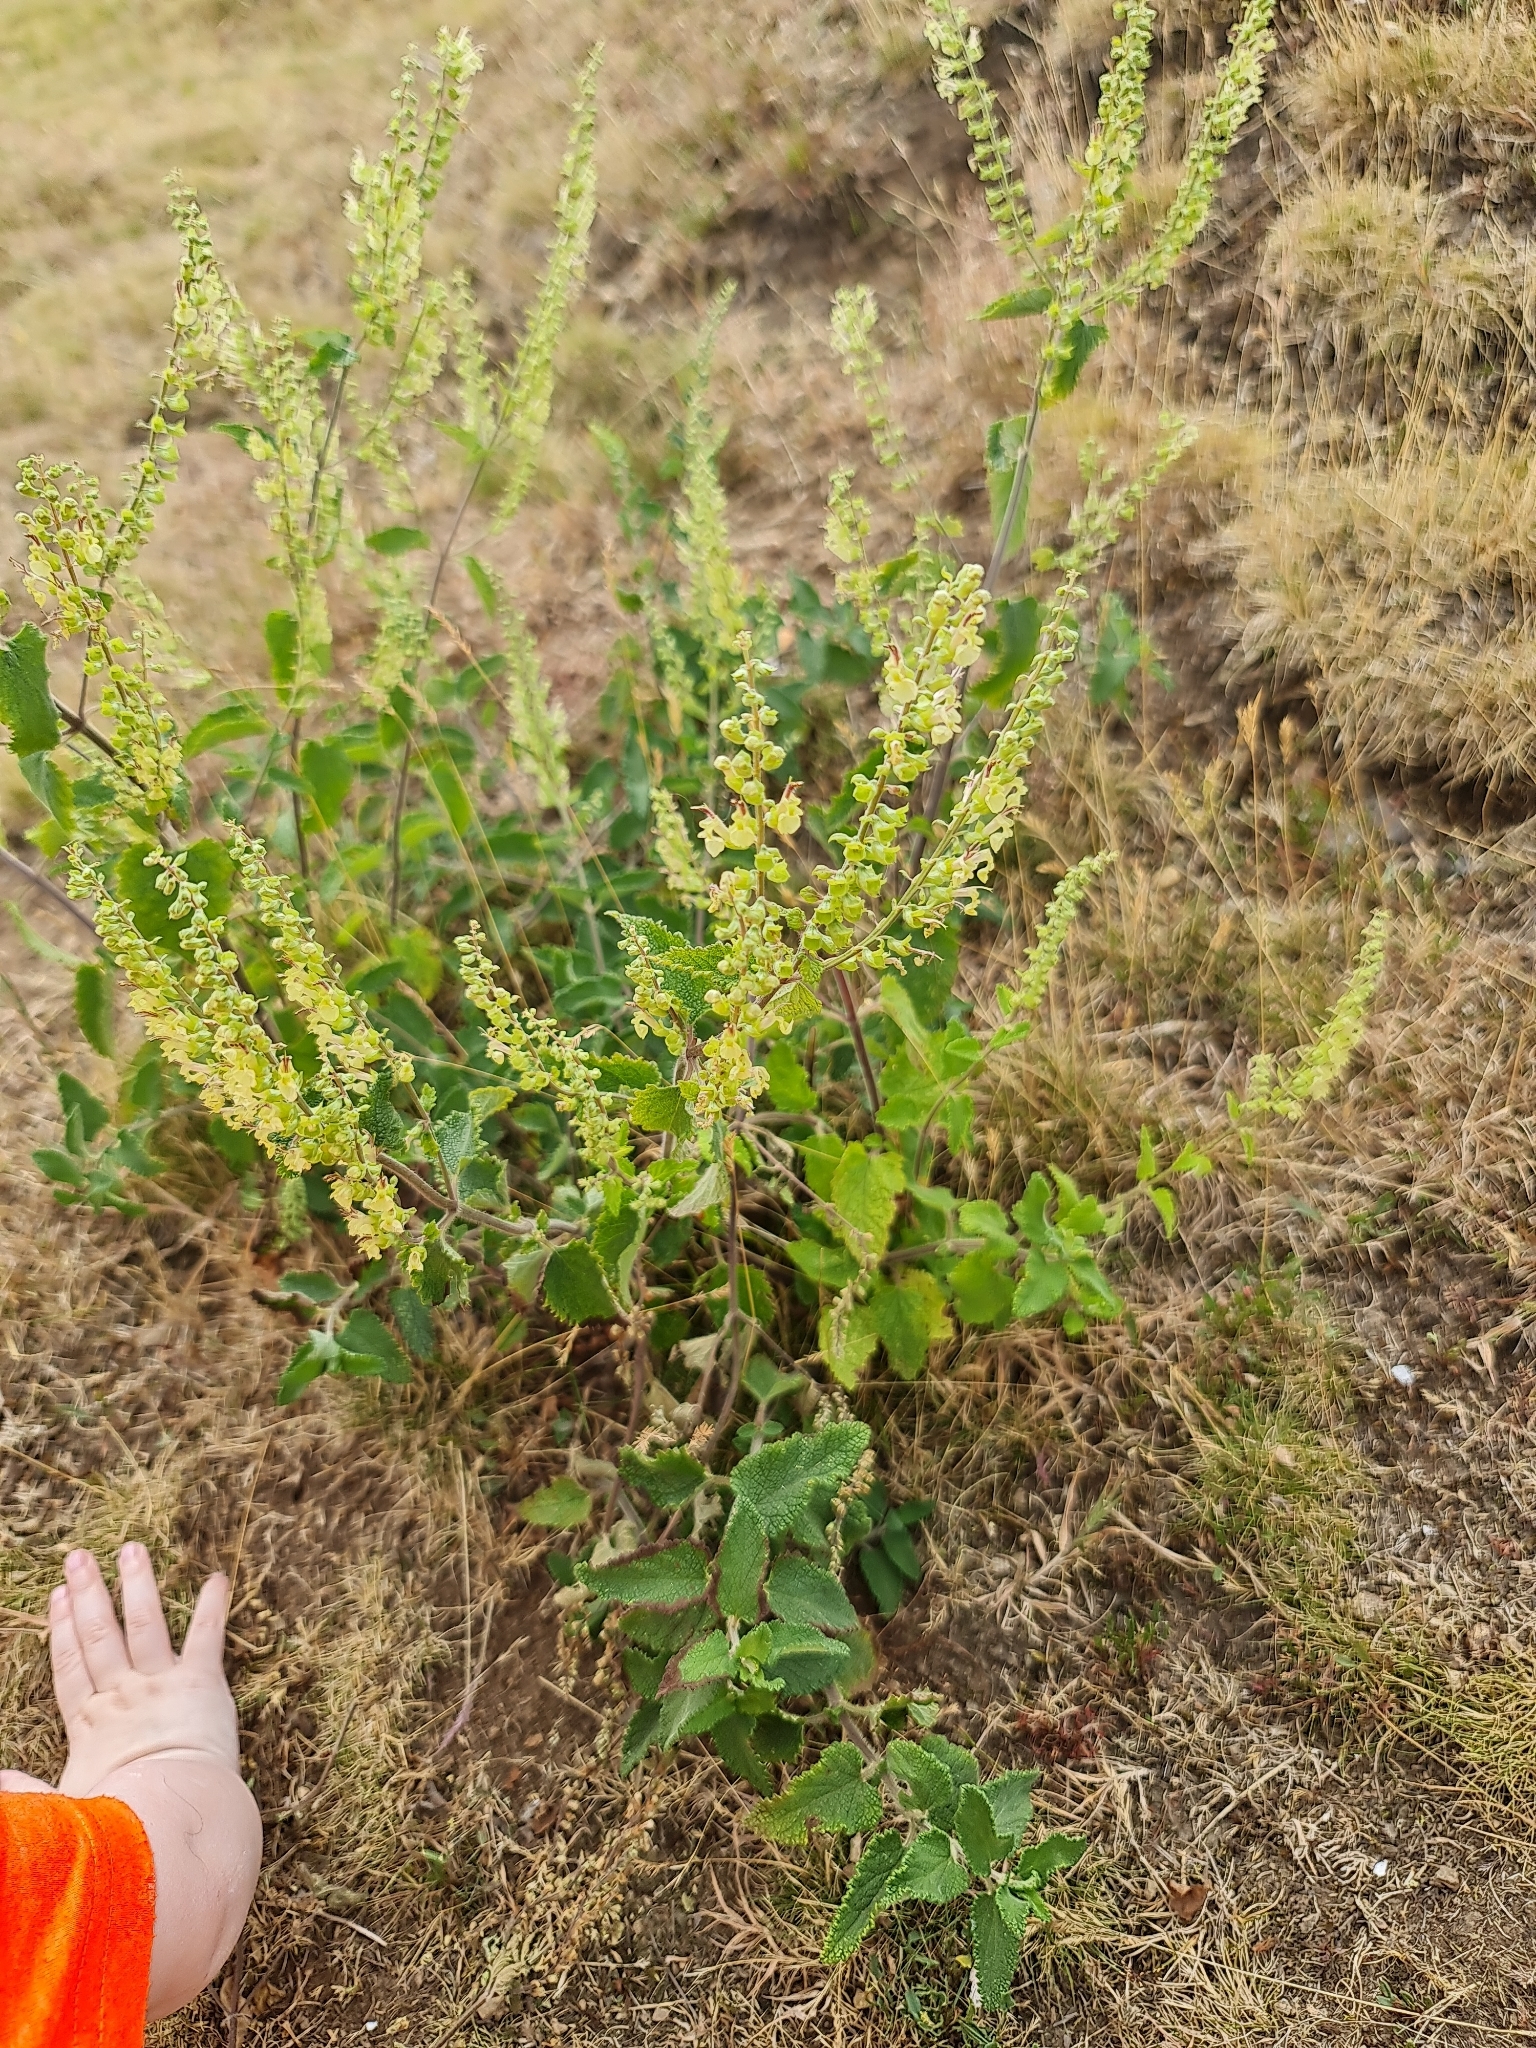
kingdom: Plantae
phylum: Tracheophyta
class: Magnoliopsida
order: Lamiales
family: Lamiaceae
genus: Teucrium
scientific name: Teucrium scorodonia
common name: Woodland germander
